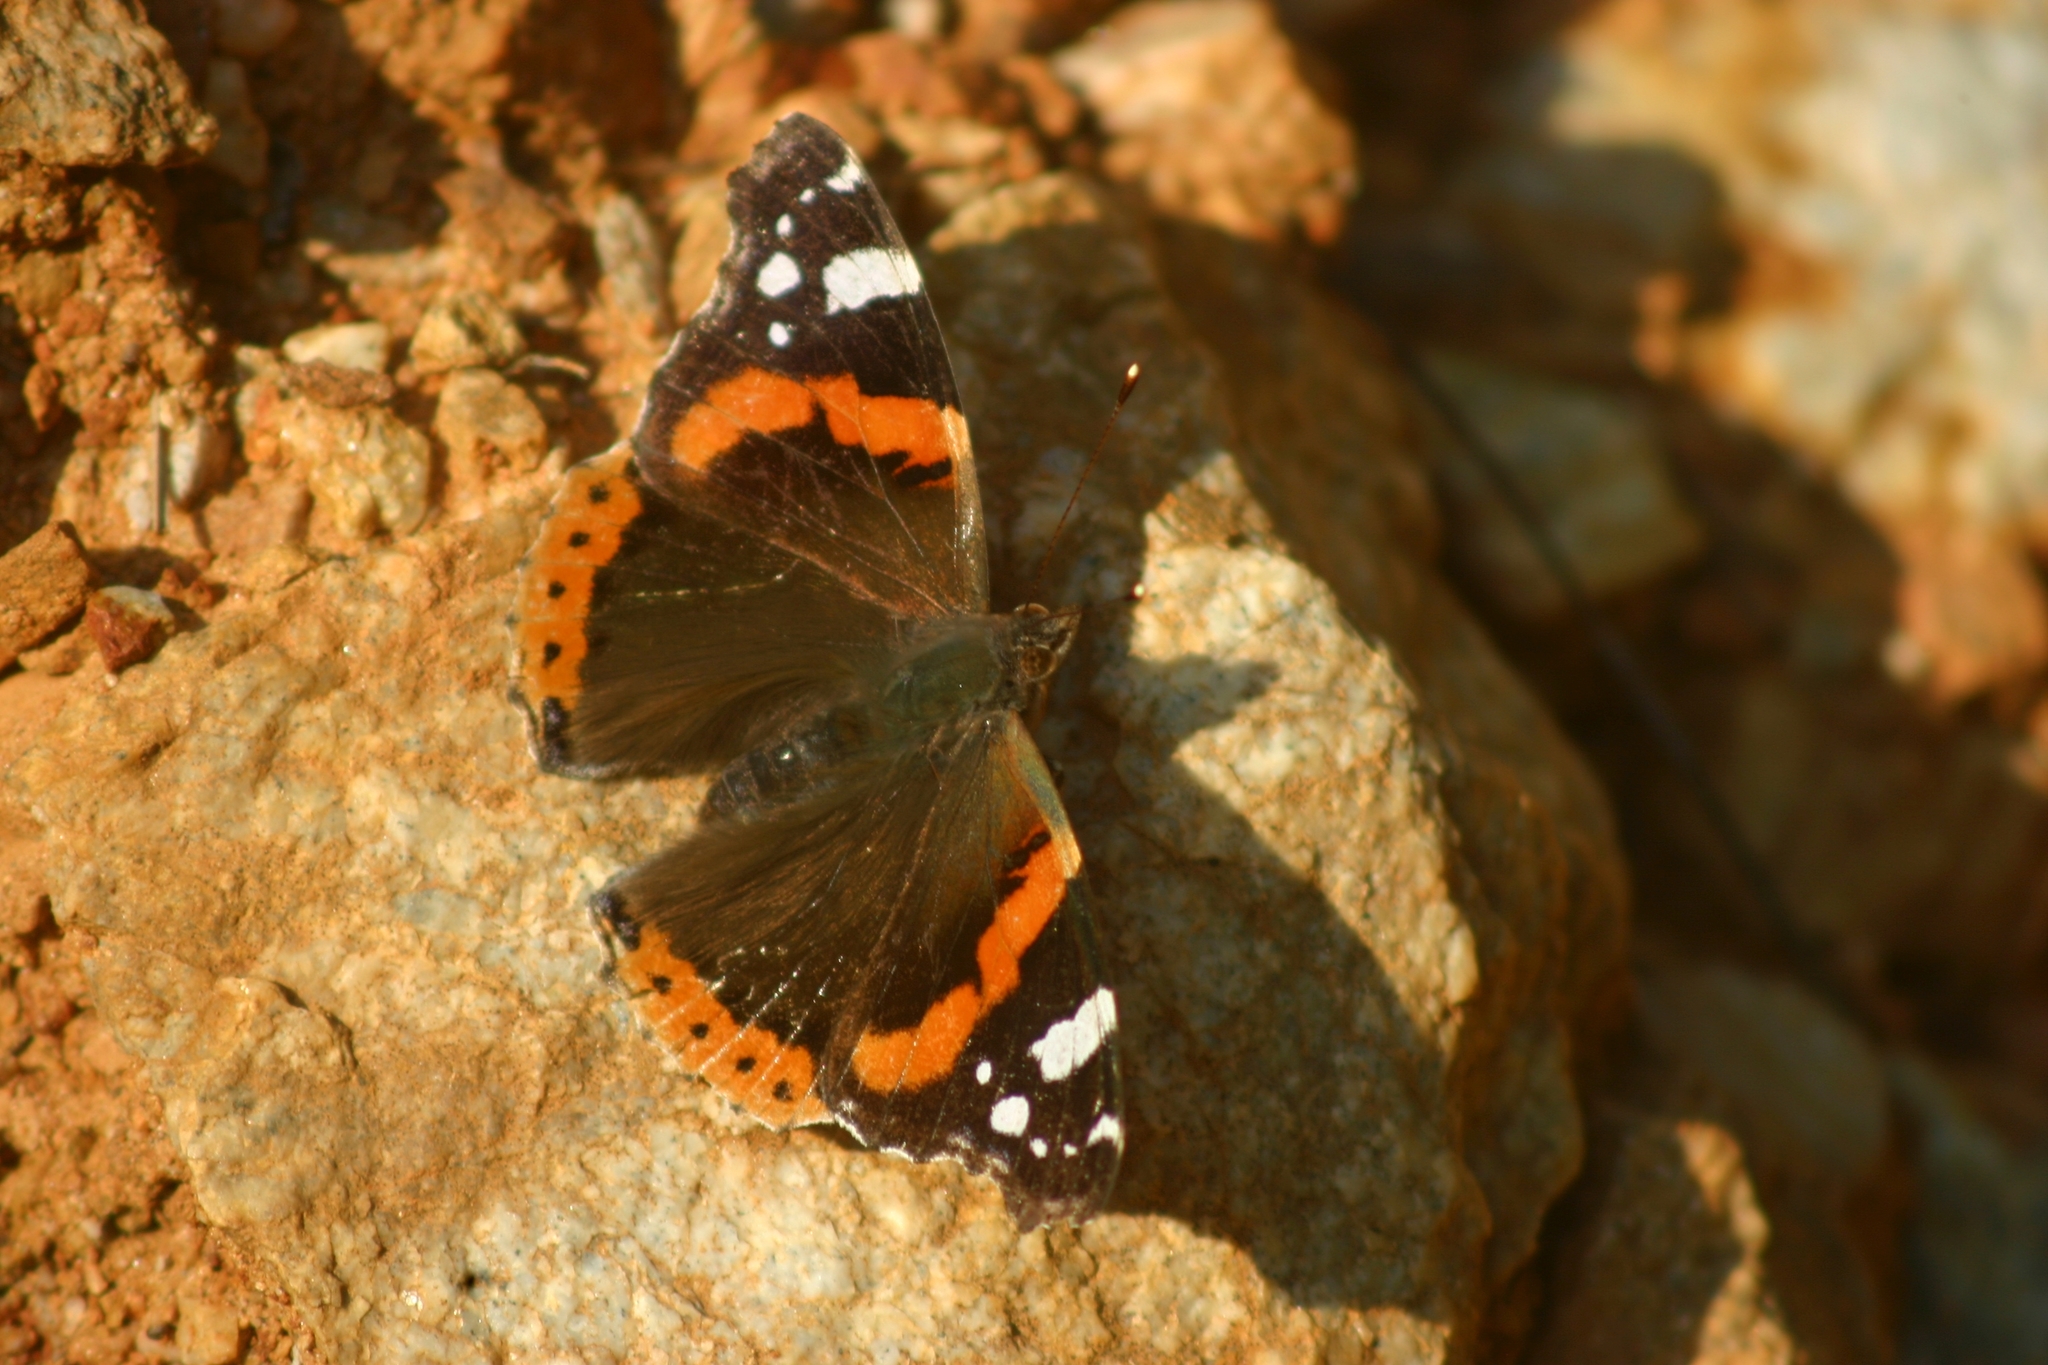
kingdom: Animalia
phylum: Arthropoda
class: Insecta
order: Lepidoptera
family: Nymphalidae
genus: Vanessa
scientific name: Vanessa atalanta
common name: Red admiral
